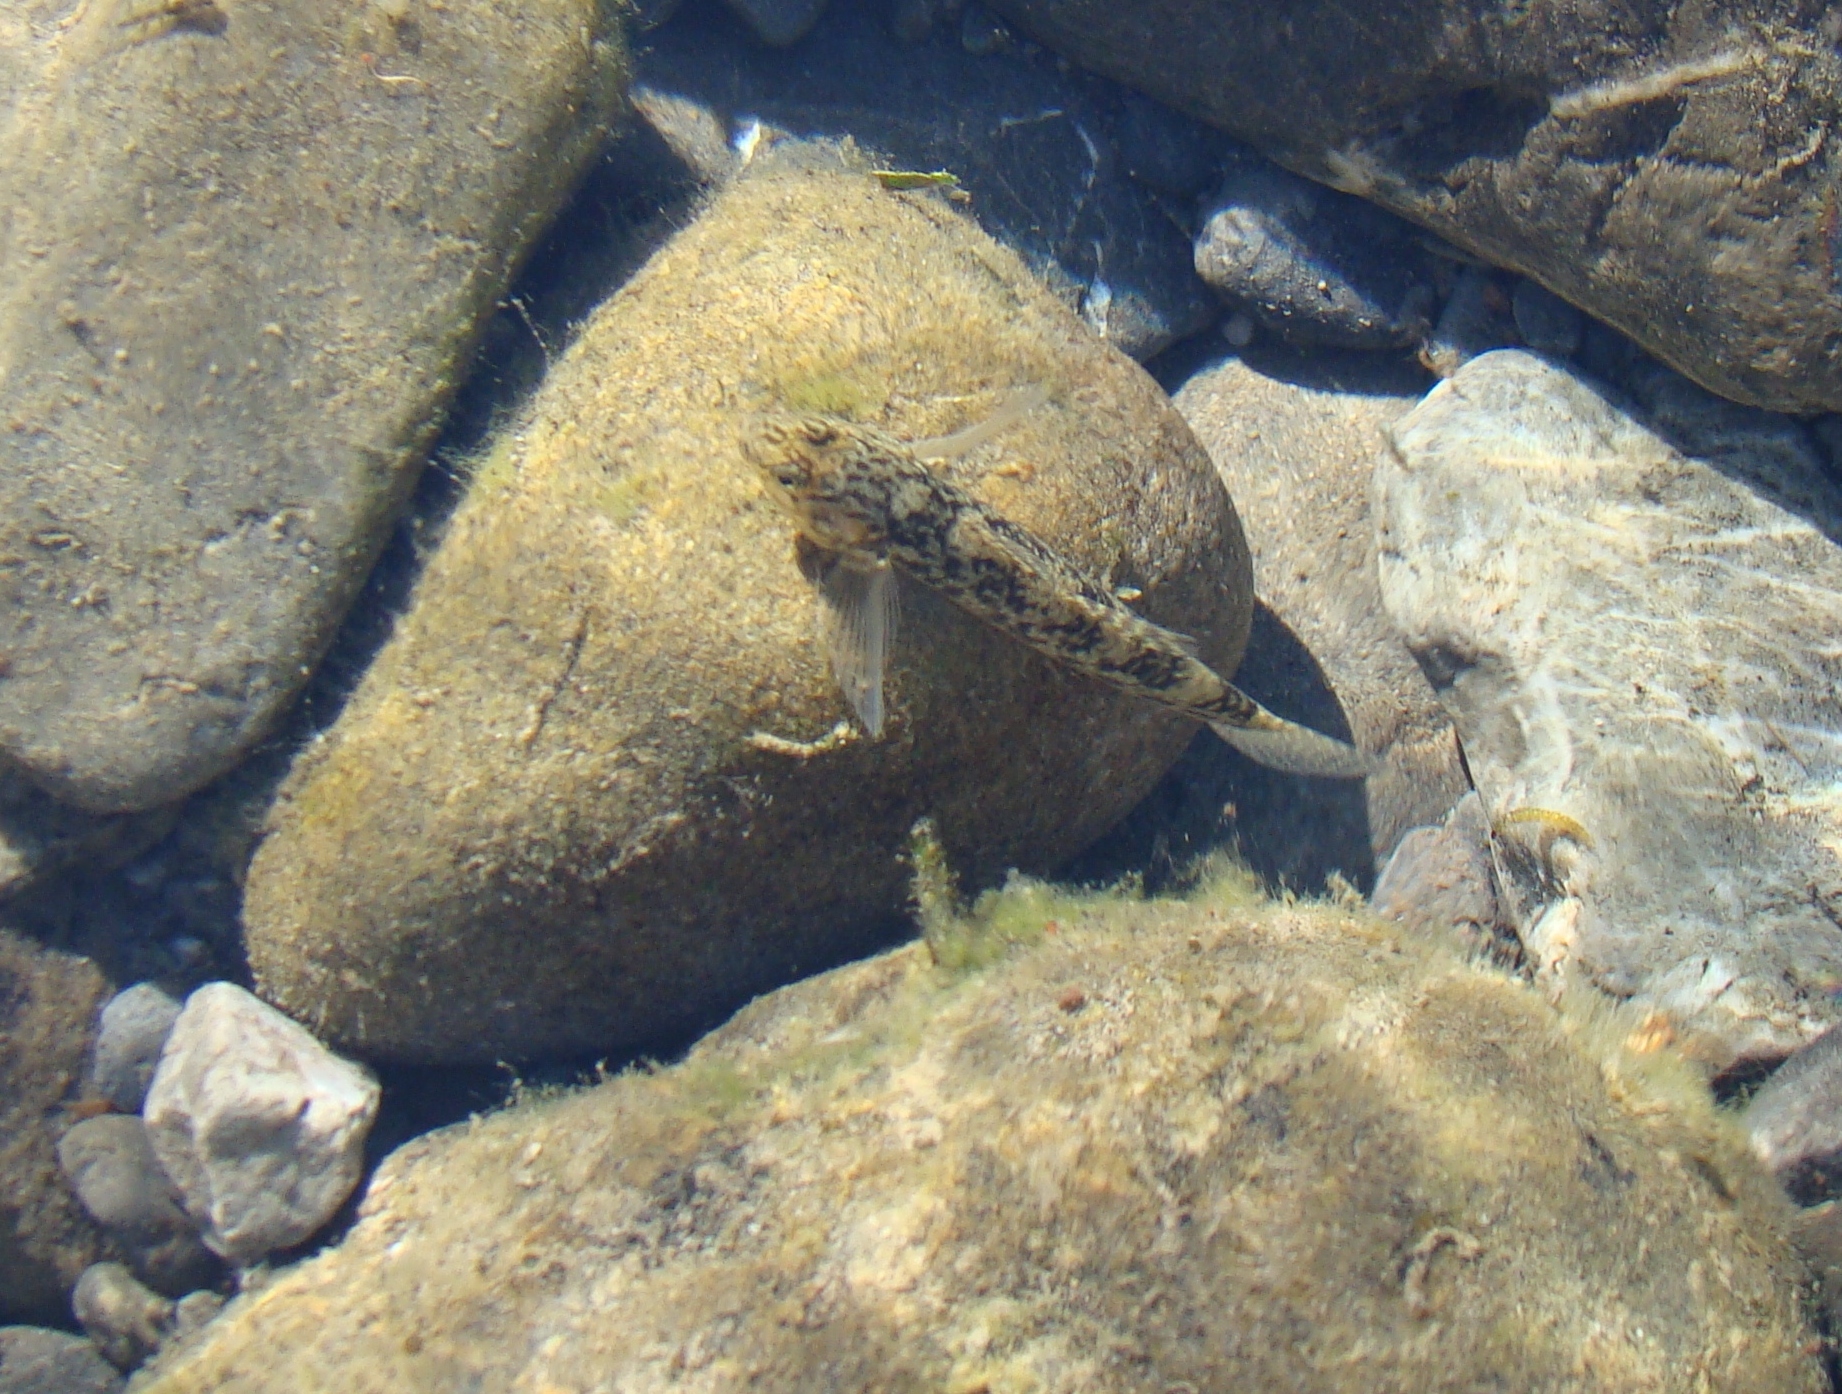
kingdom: Animalia
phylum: Chordata
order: Perciformes
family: Eleotridae
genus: Gobiomorphus
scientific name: Gobiomorphus
